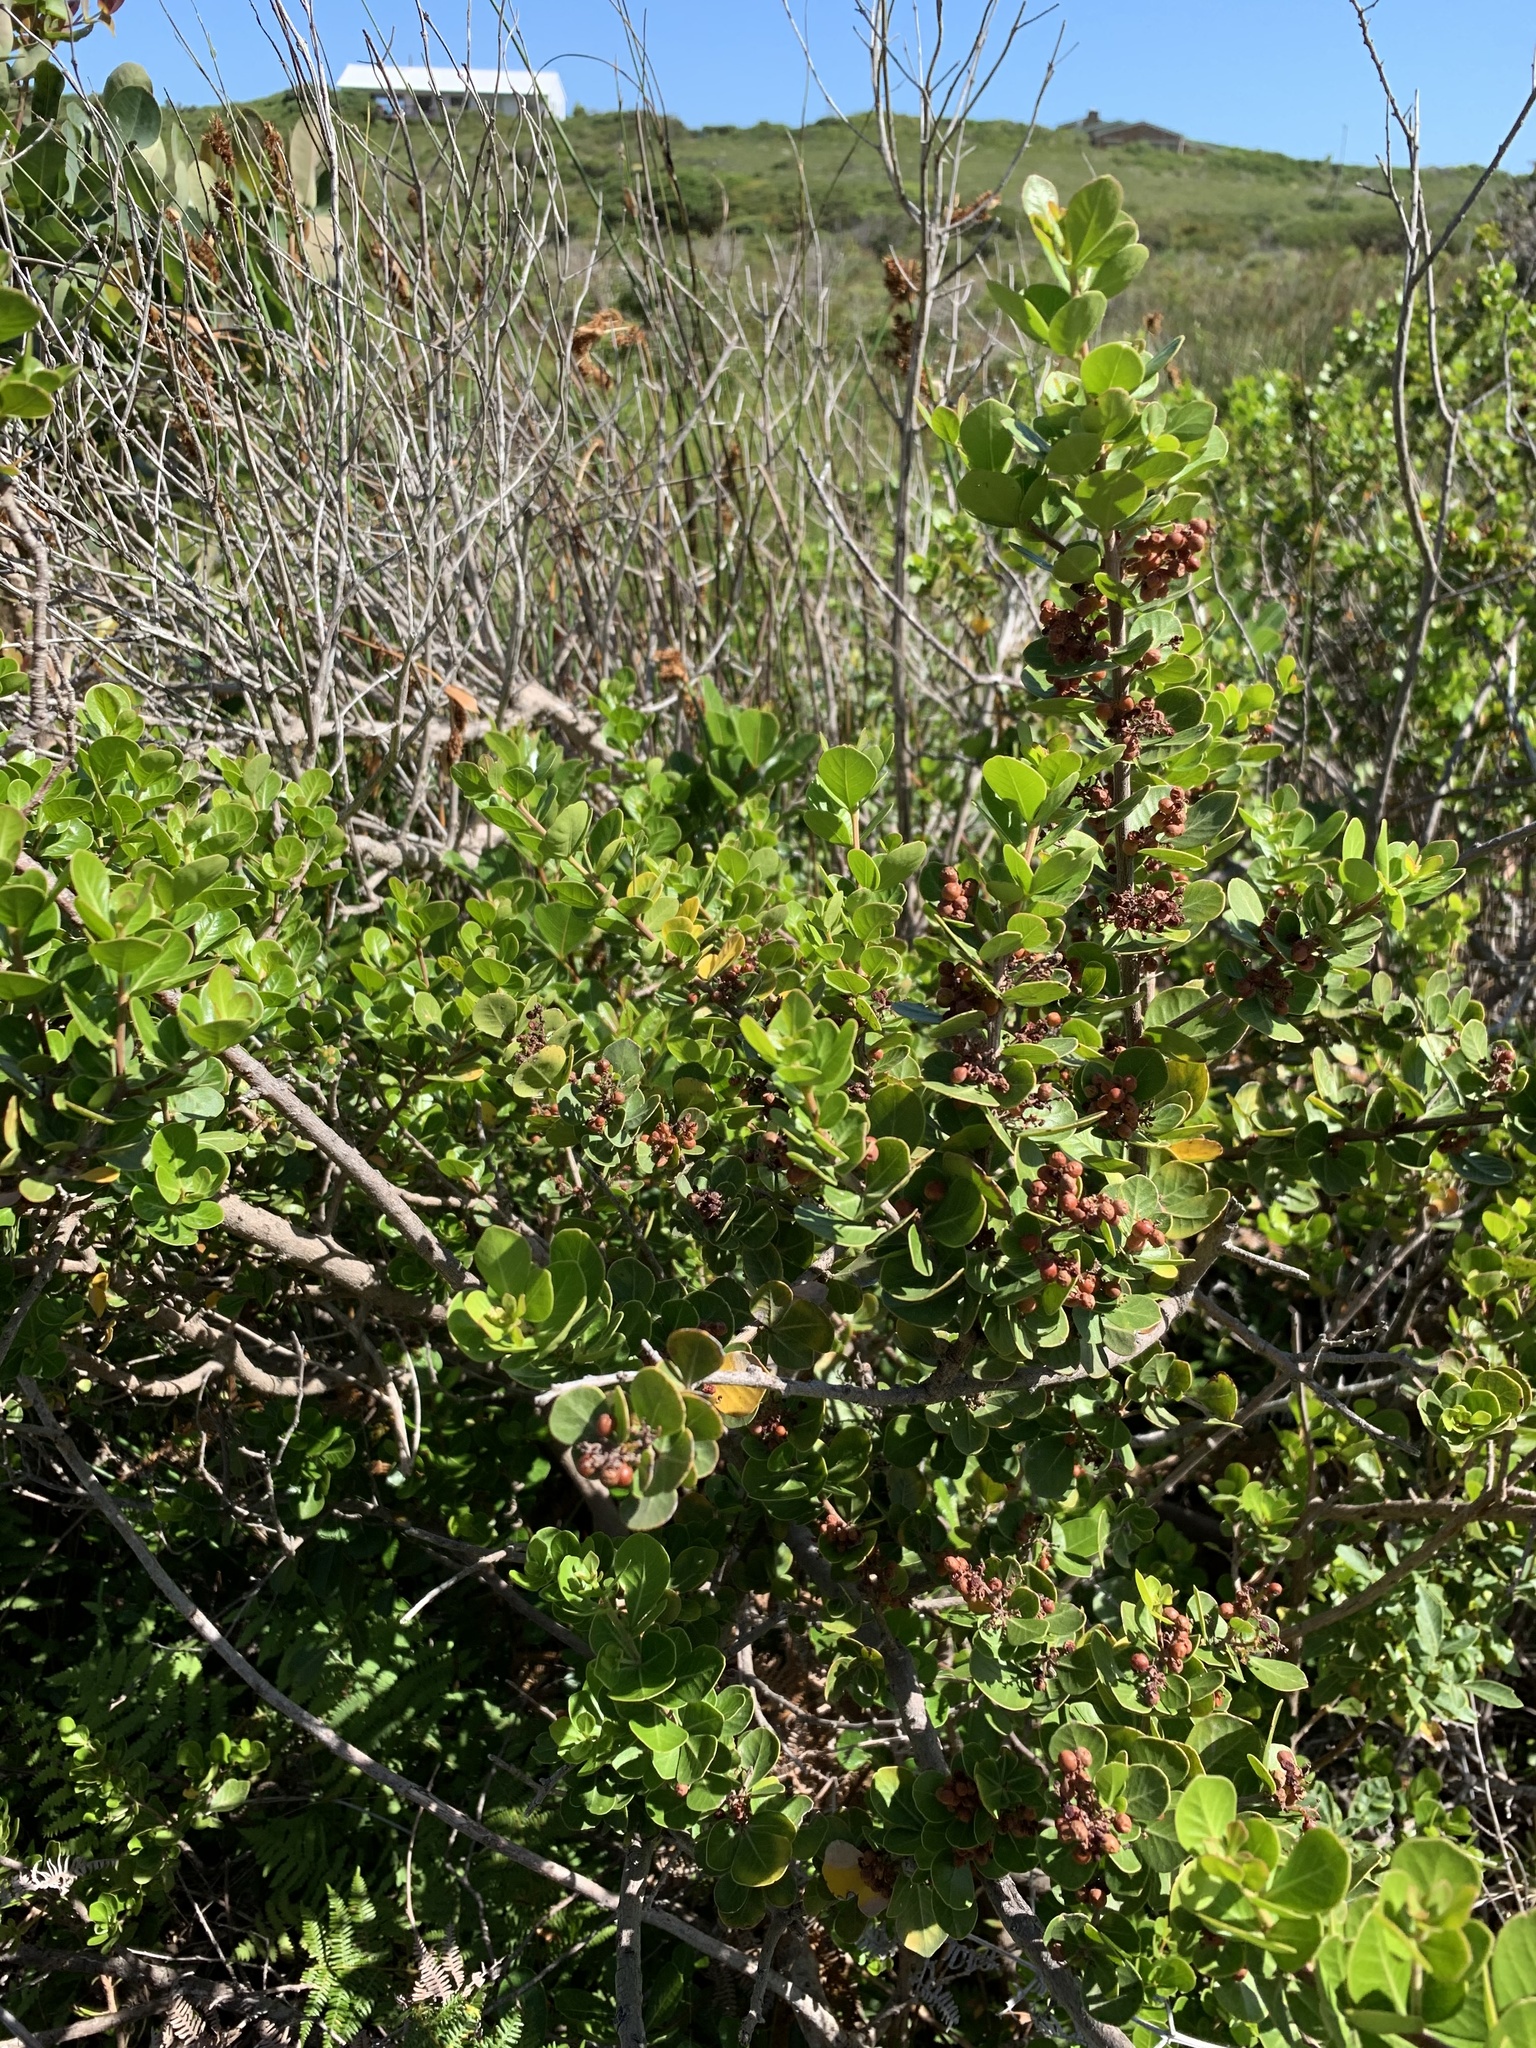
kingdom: Plantae
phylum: Tracheophyta
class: Magnoliopsida
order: Sapindales
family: Anacardiaceae
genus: Searsia
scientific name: Searsia lucida
